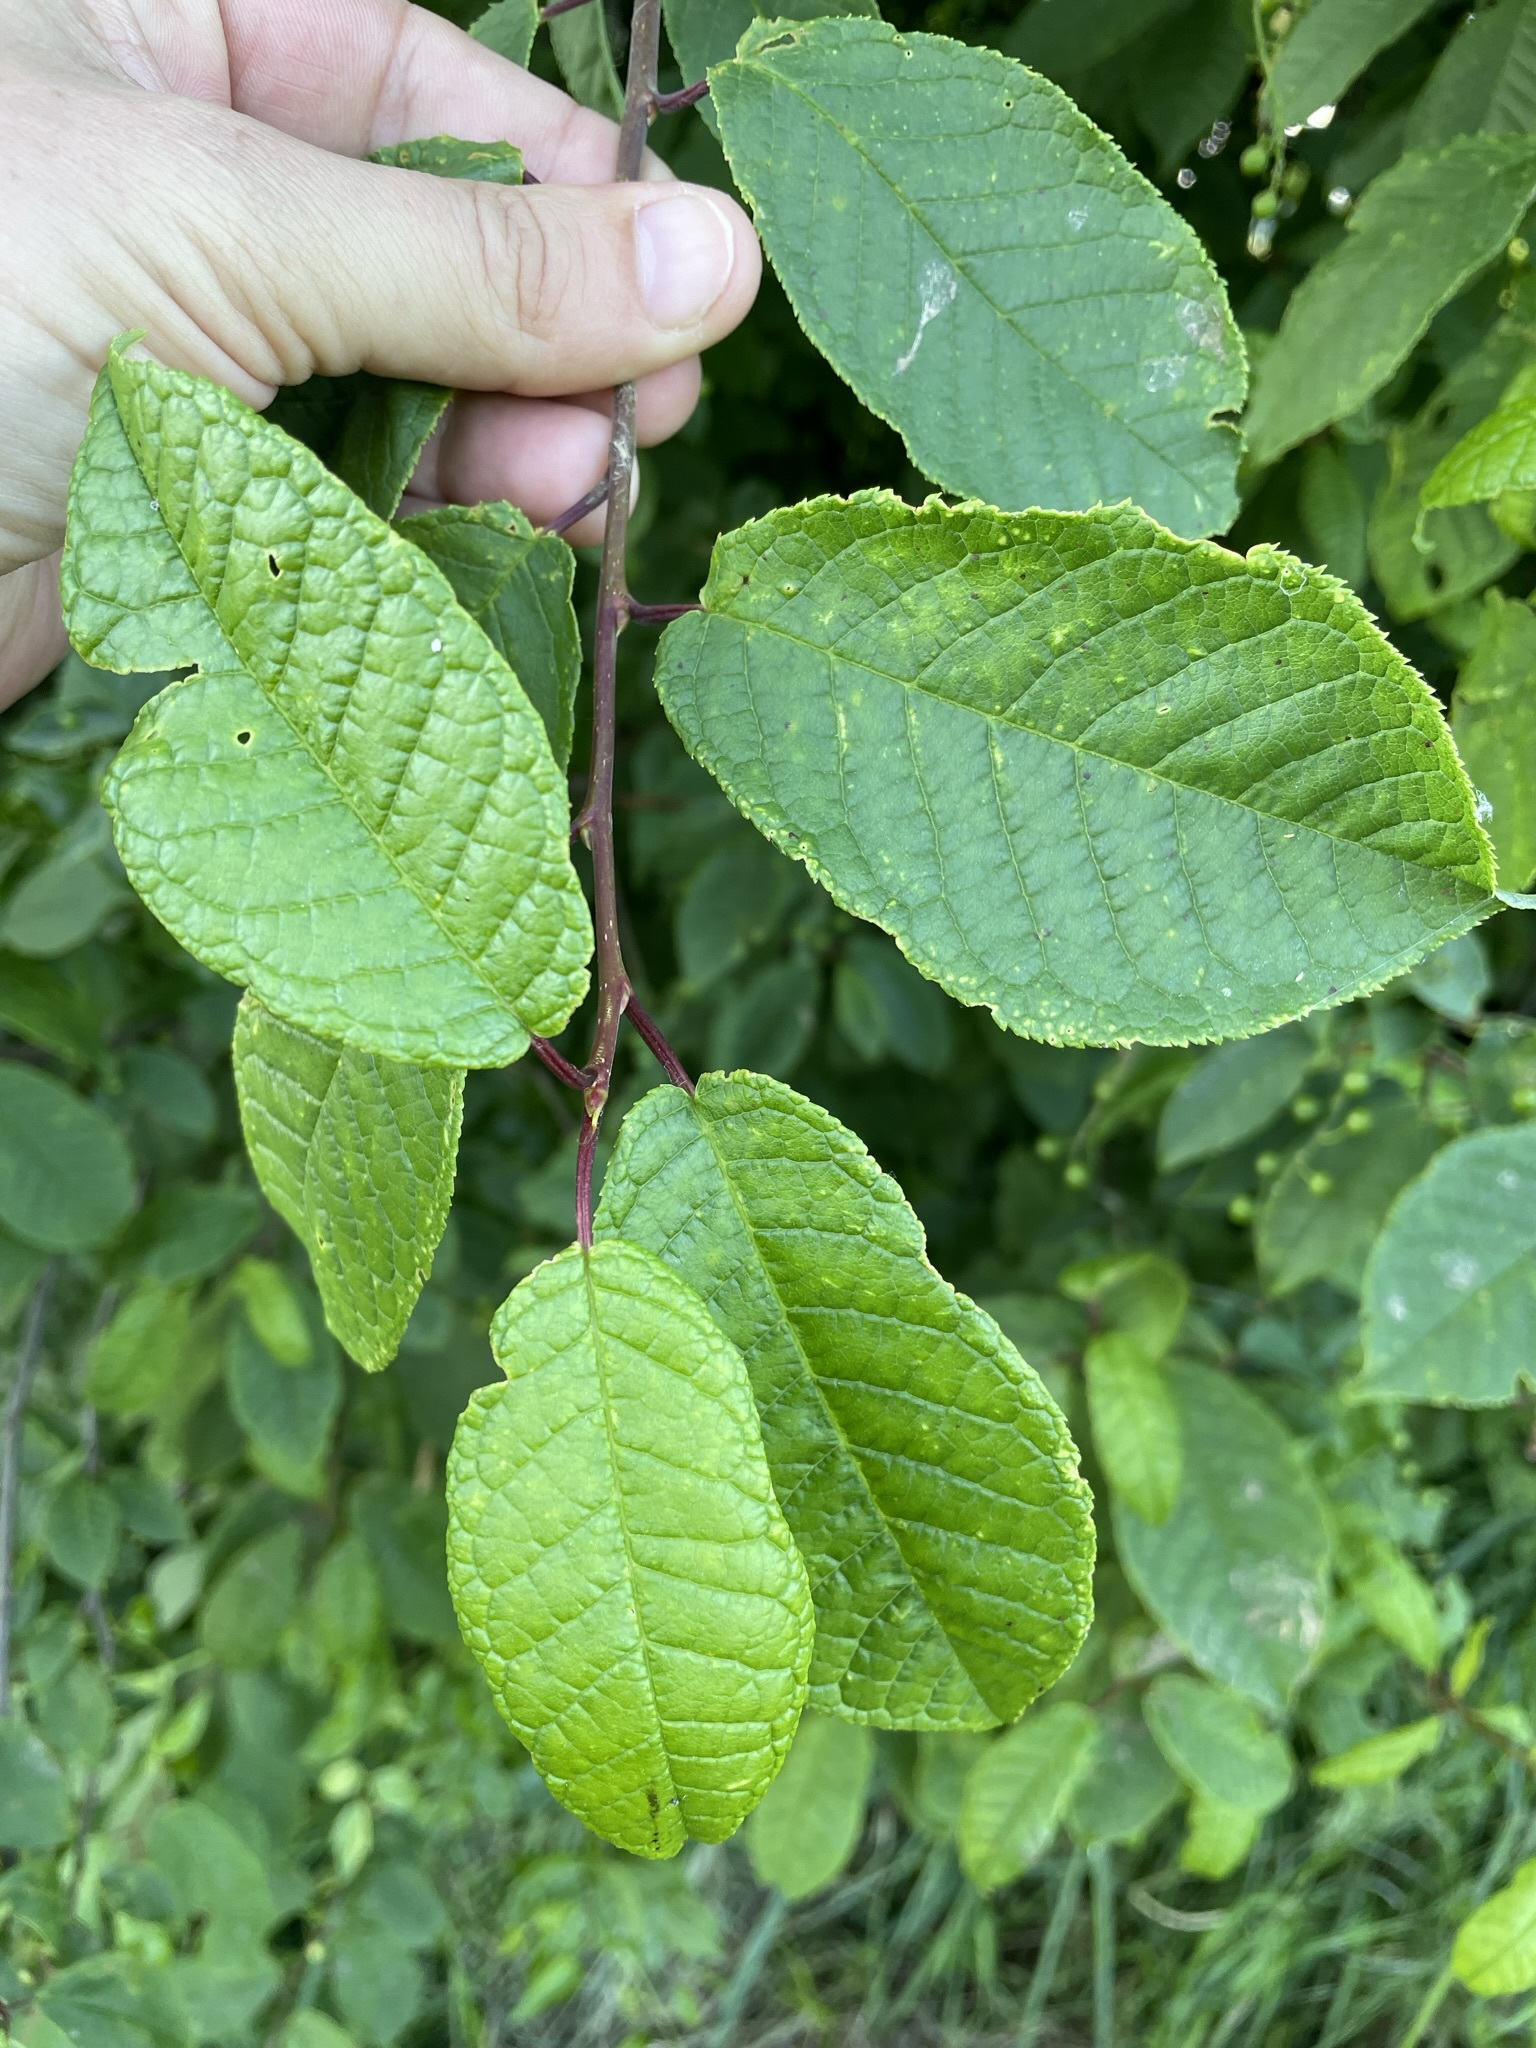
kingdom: Plantae
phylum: Tracheophyta
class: Magnoliopsida
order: Rosales
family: Rosaceae
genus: Prunus
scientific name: Prunus padus
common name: Bird cherry
